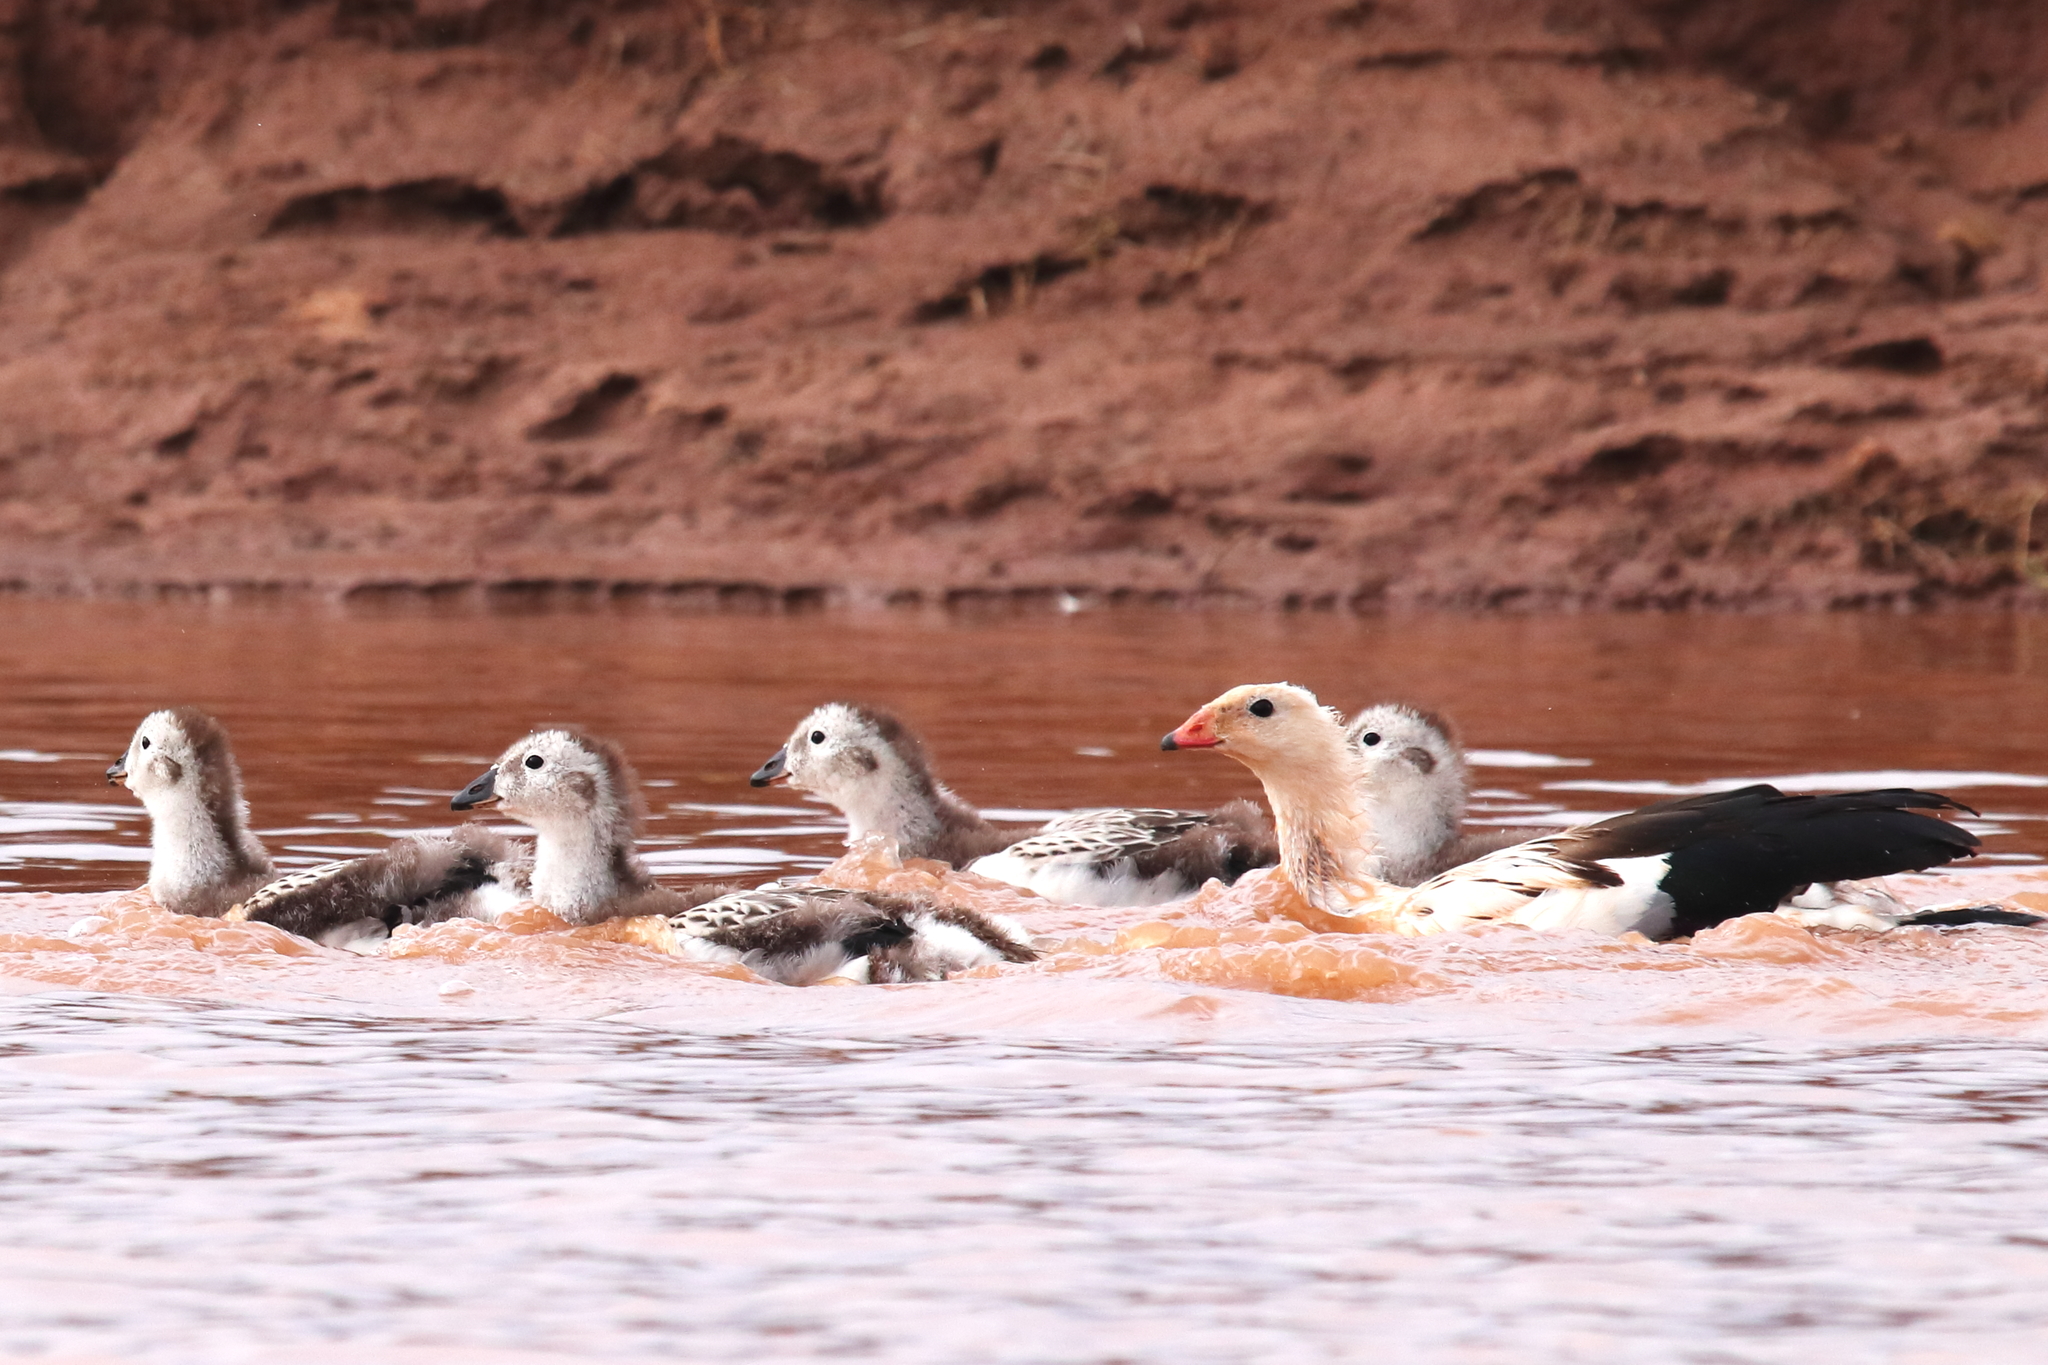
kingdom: Animalia
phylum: Chordata
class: Aves
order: Anseriformes
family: Anatidae
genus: Chloephaga
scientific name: Chloephaga melanoptera
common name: Andean goose
